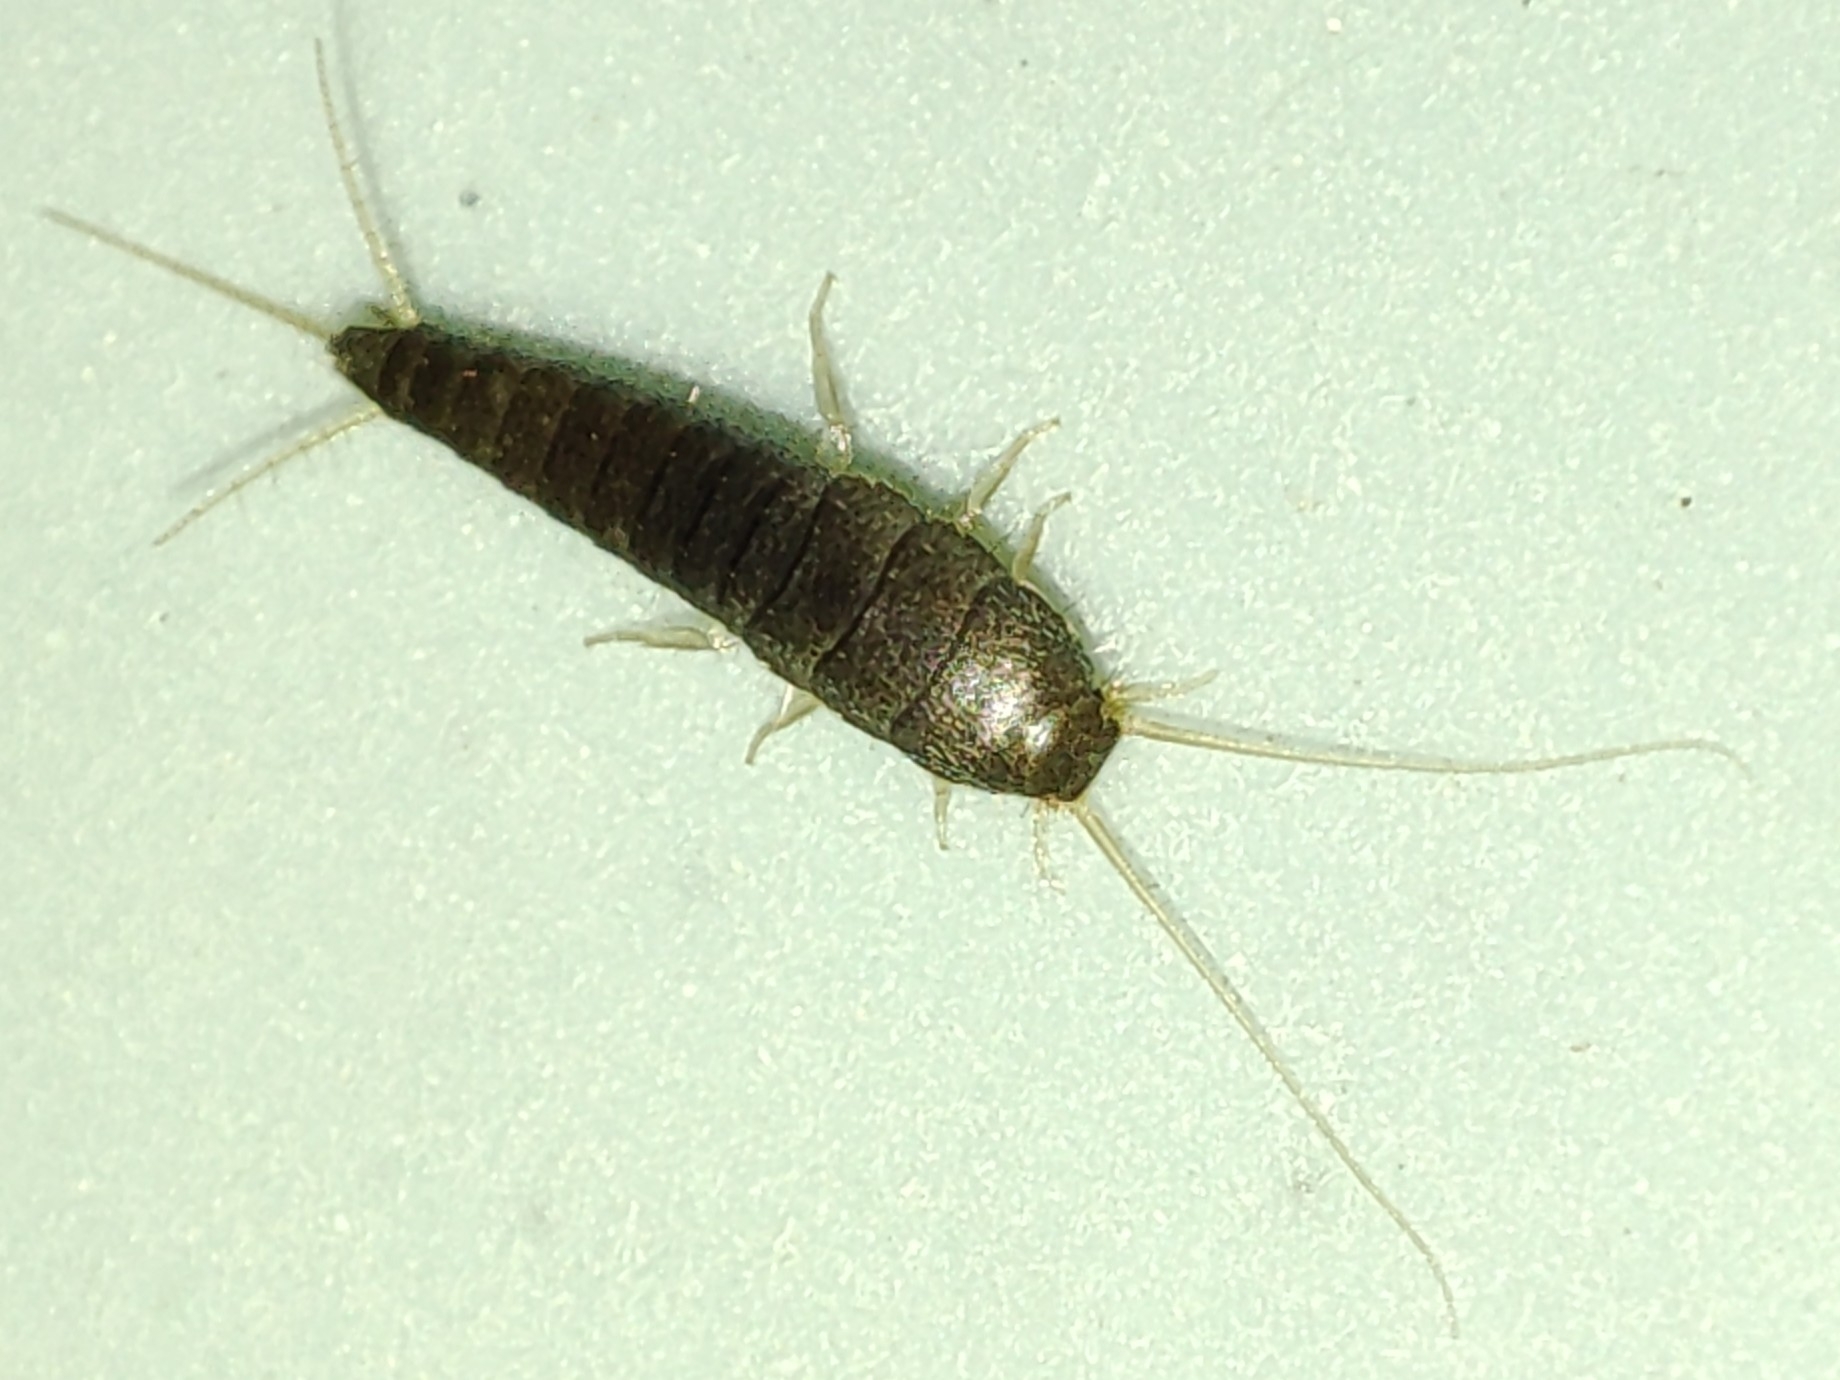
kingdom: Animalia
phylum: Arthropoda
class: Insecta
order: Zygentoma
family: Lepismatidae
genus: Lepisma
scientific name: Lepisma saccharinum
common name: Silverfish
